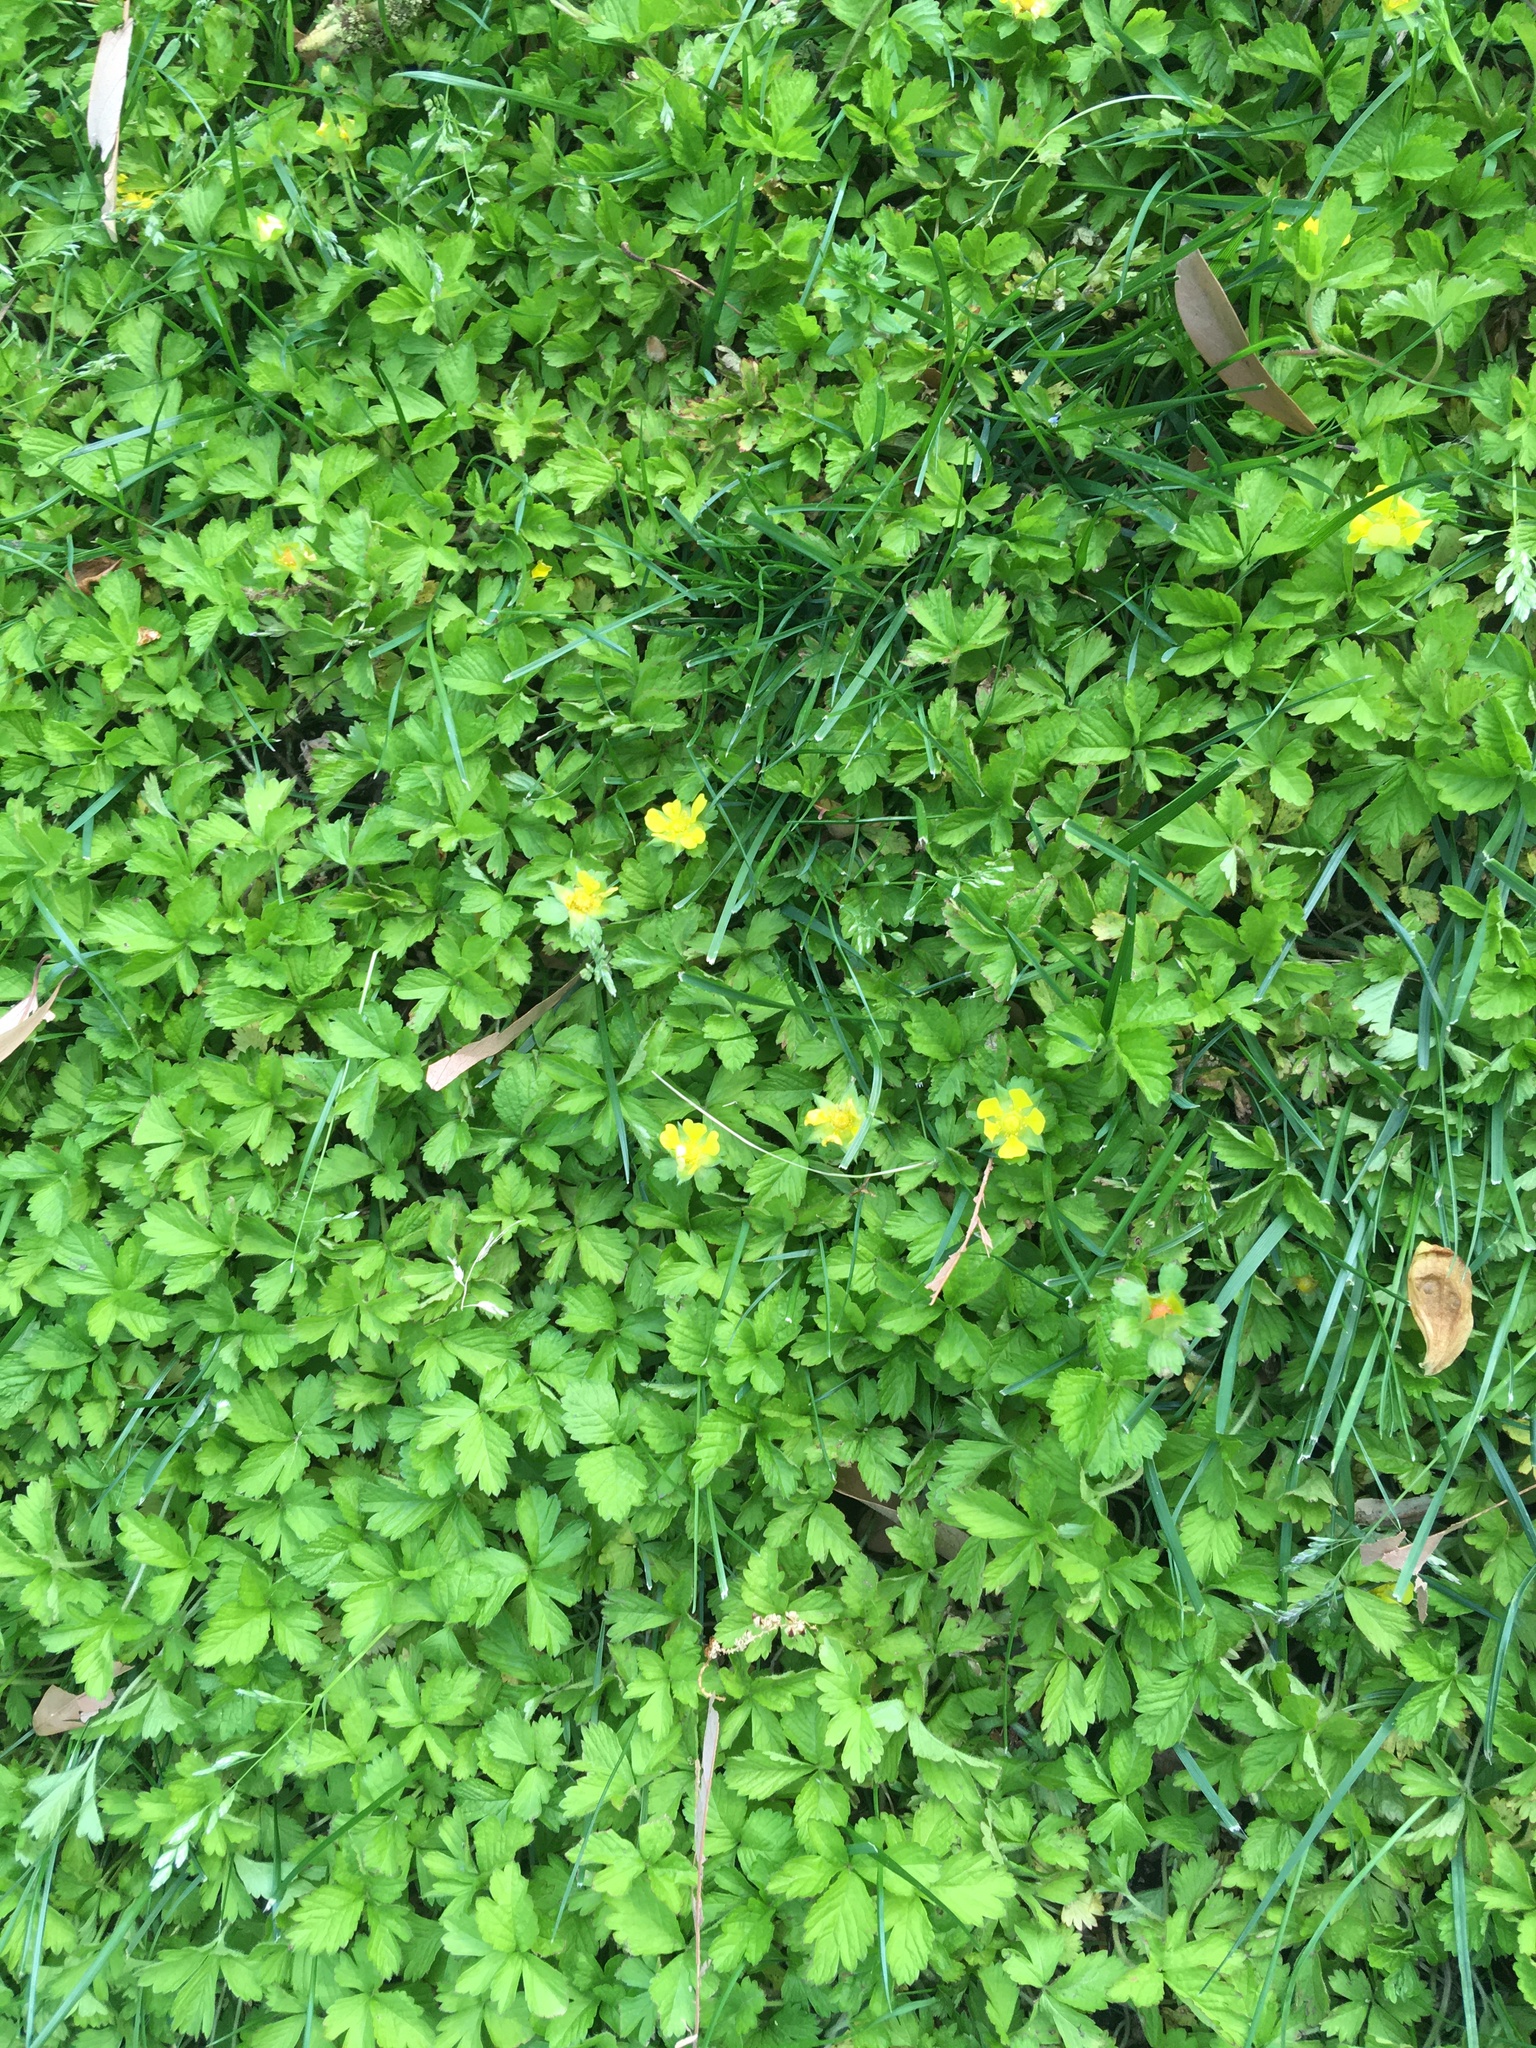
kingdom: Plantae
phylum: Tracheophyta
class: Magnoliopsida
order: Rosales
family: Rosaceae
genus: Potentilla
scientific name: Potentilla indica
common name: Yellow-flowered strawberry
